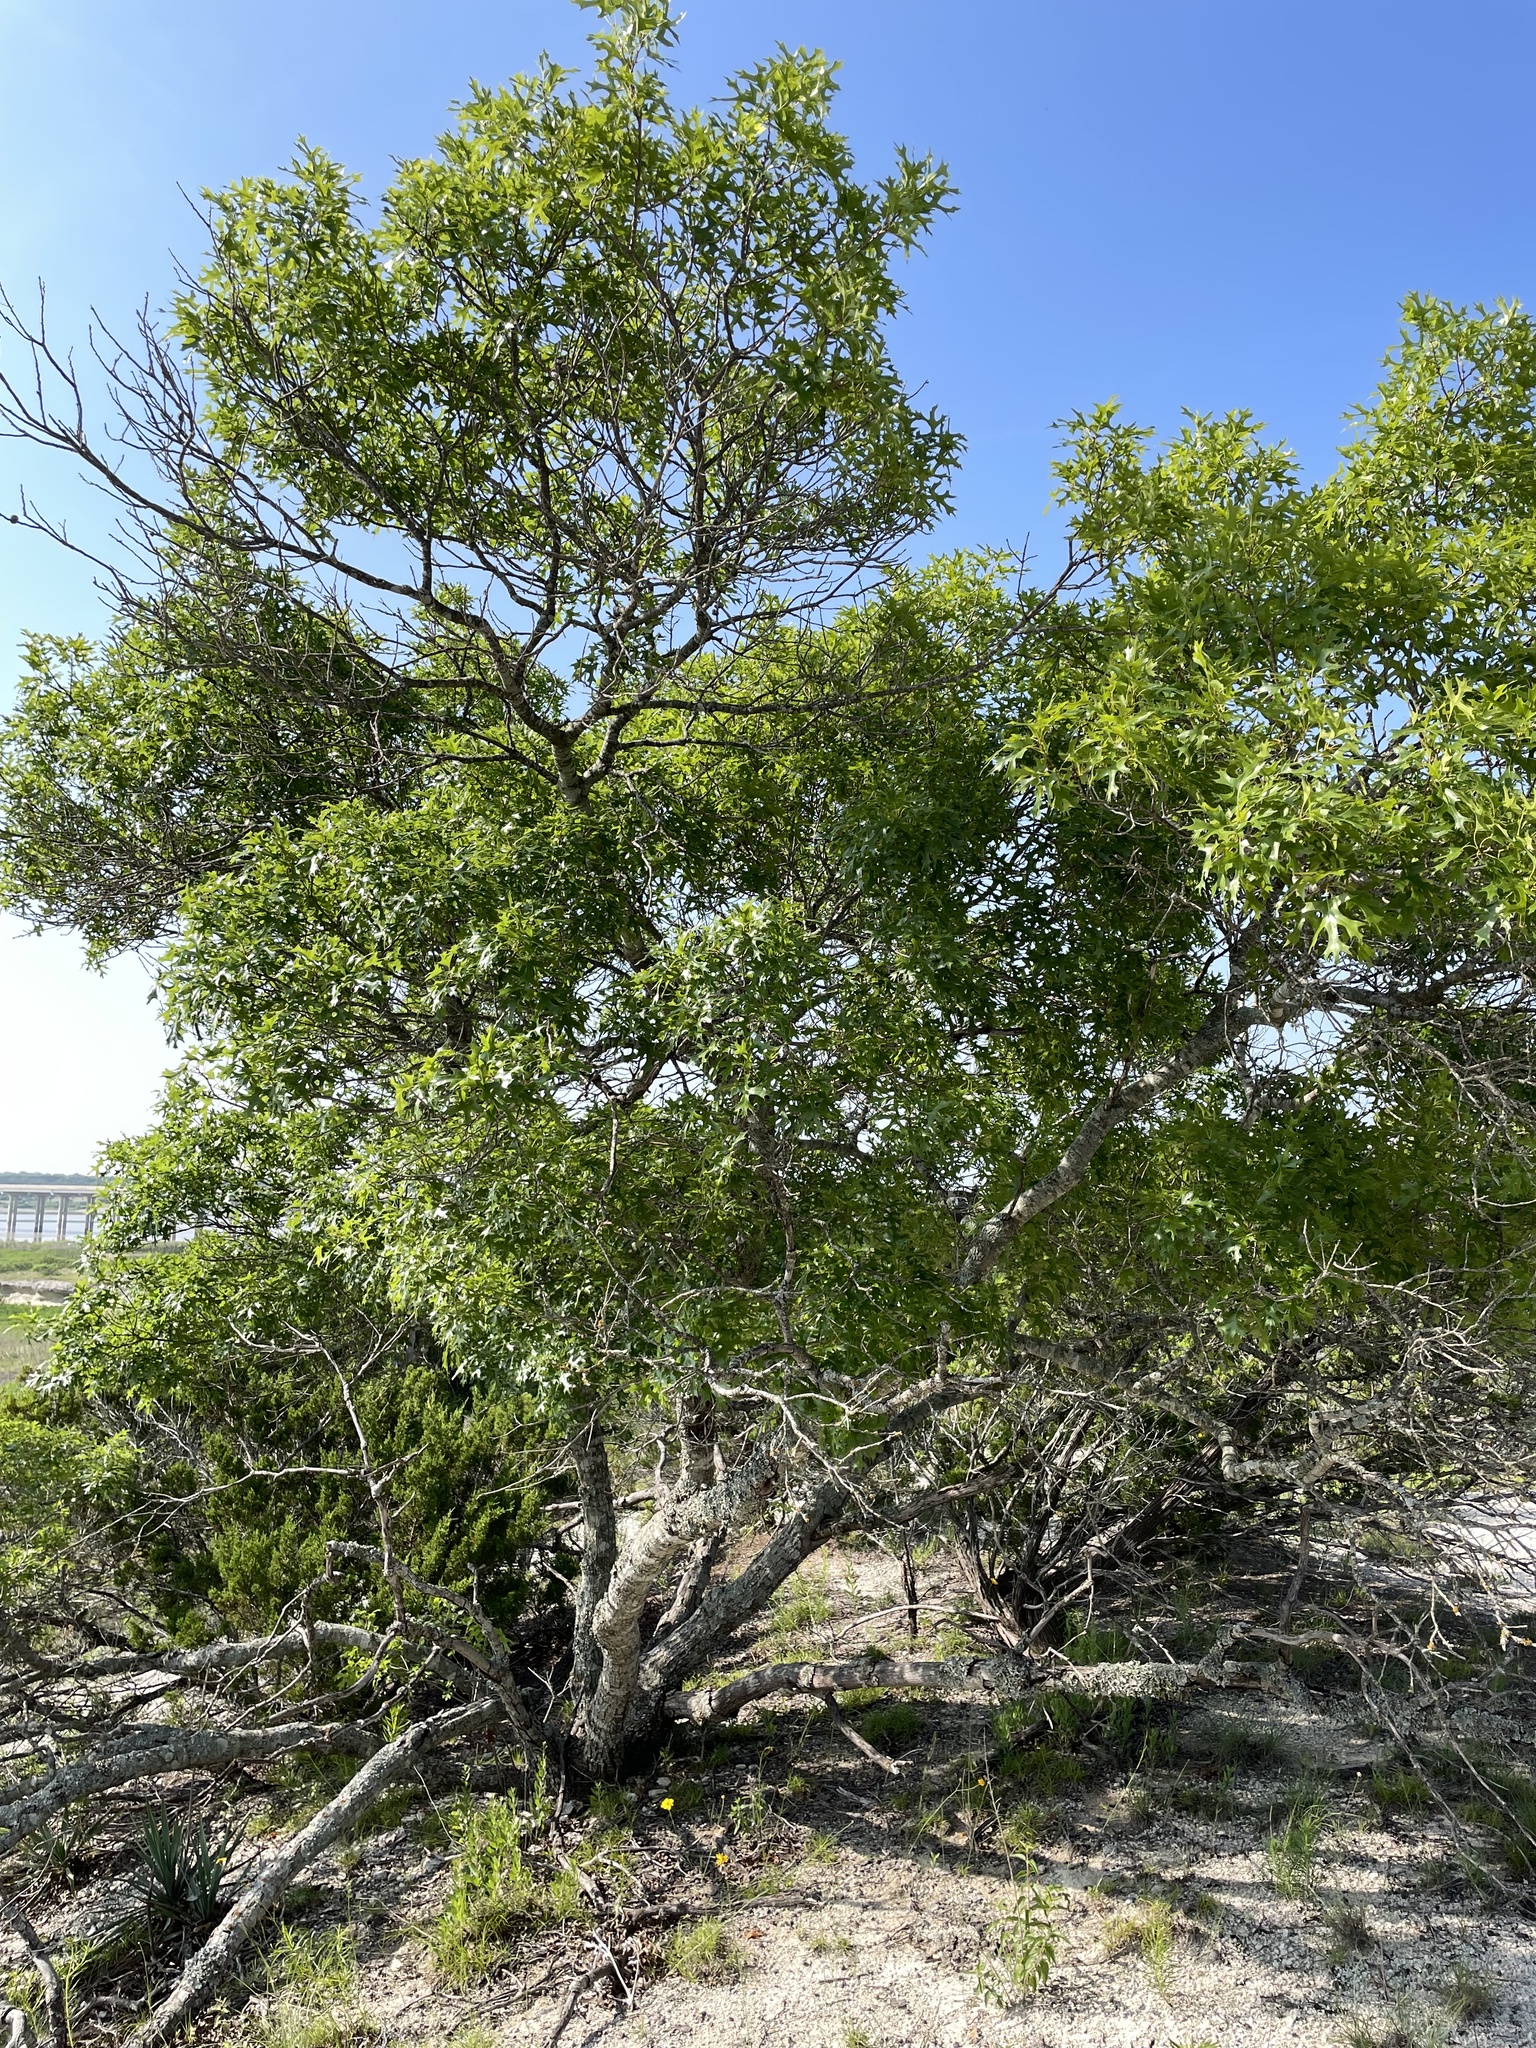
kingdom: Plantae
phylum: Tracheophyta
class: Magnoliopsida
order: Fagales
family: Fagaceae
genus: Quercus
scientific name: Quercus buckleyi
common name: Buckley oak
